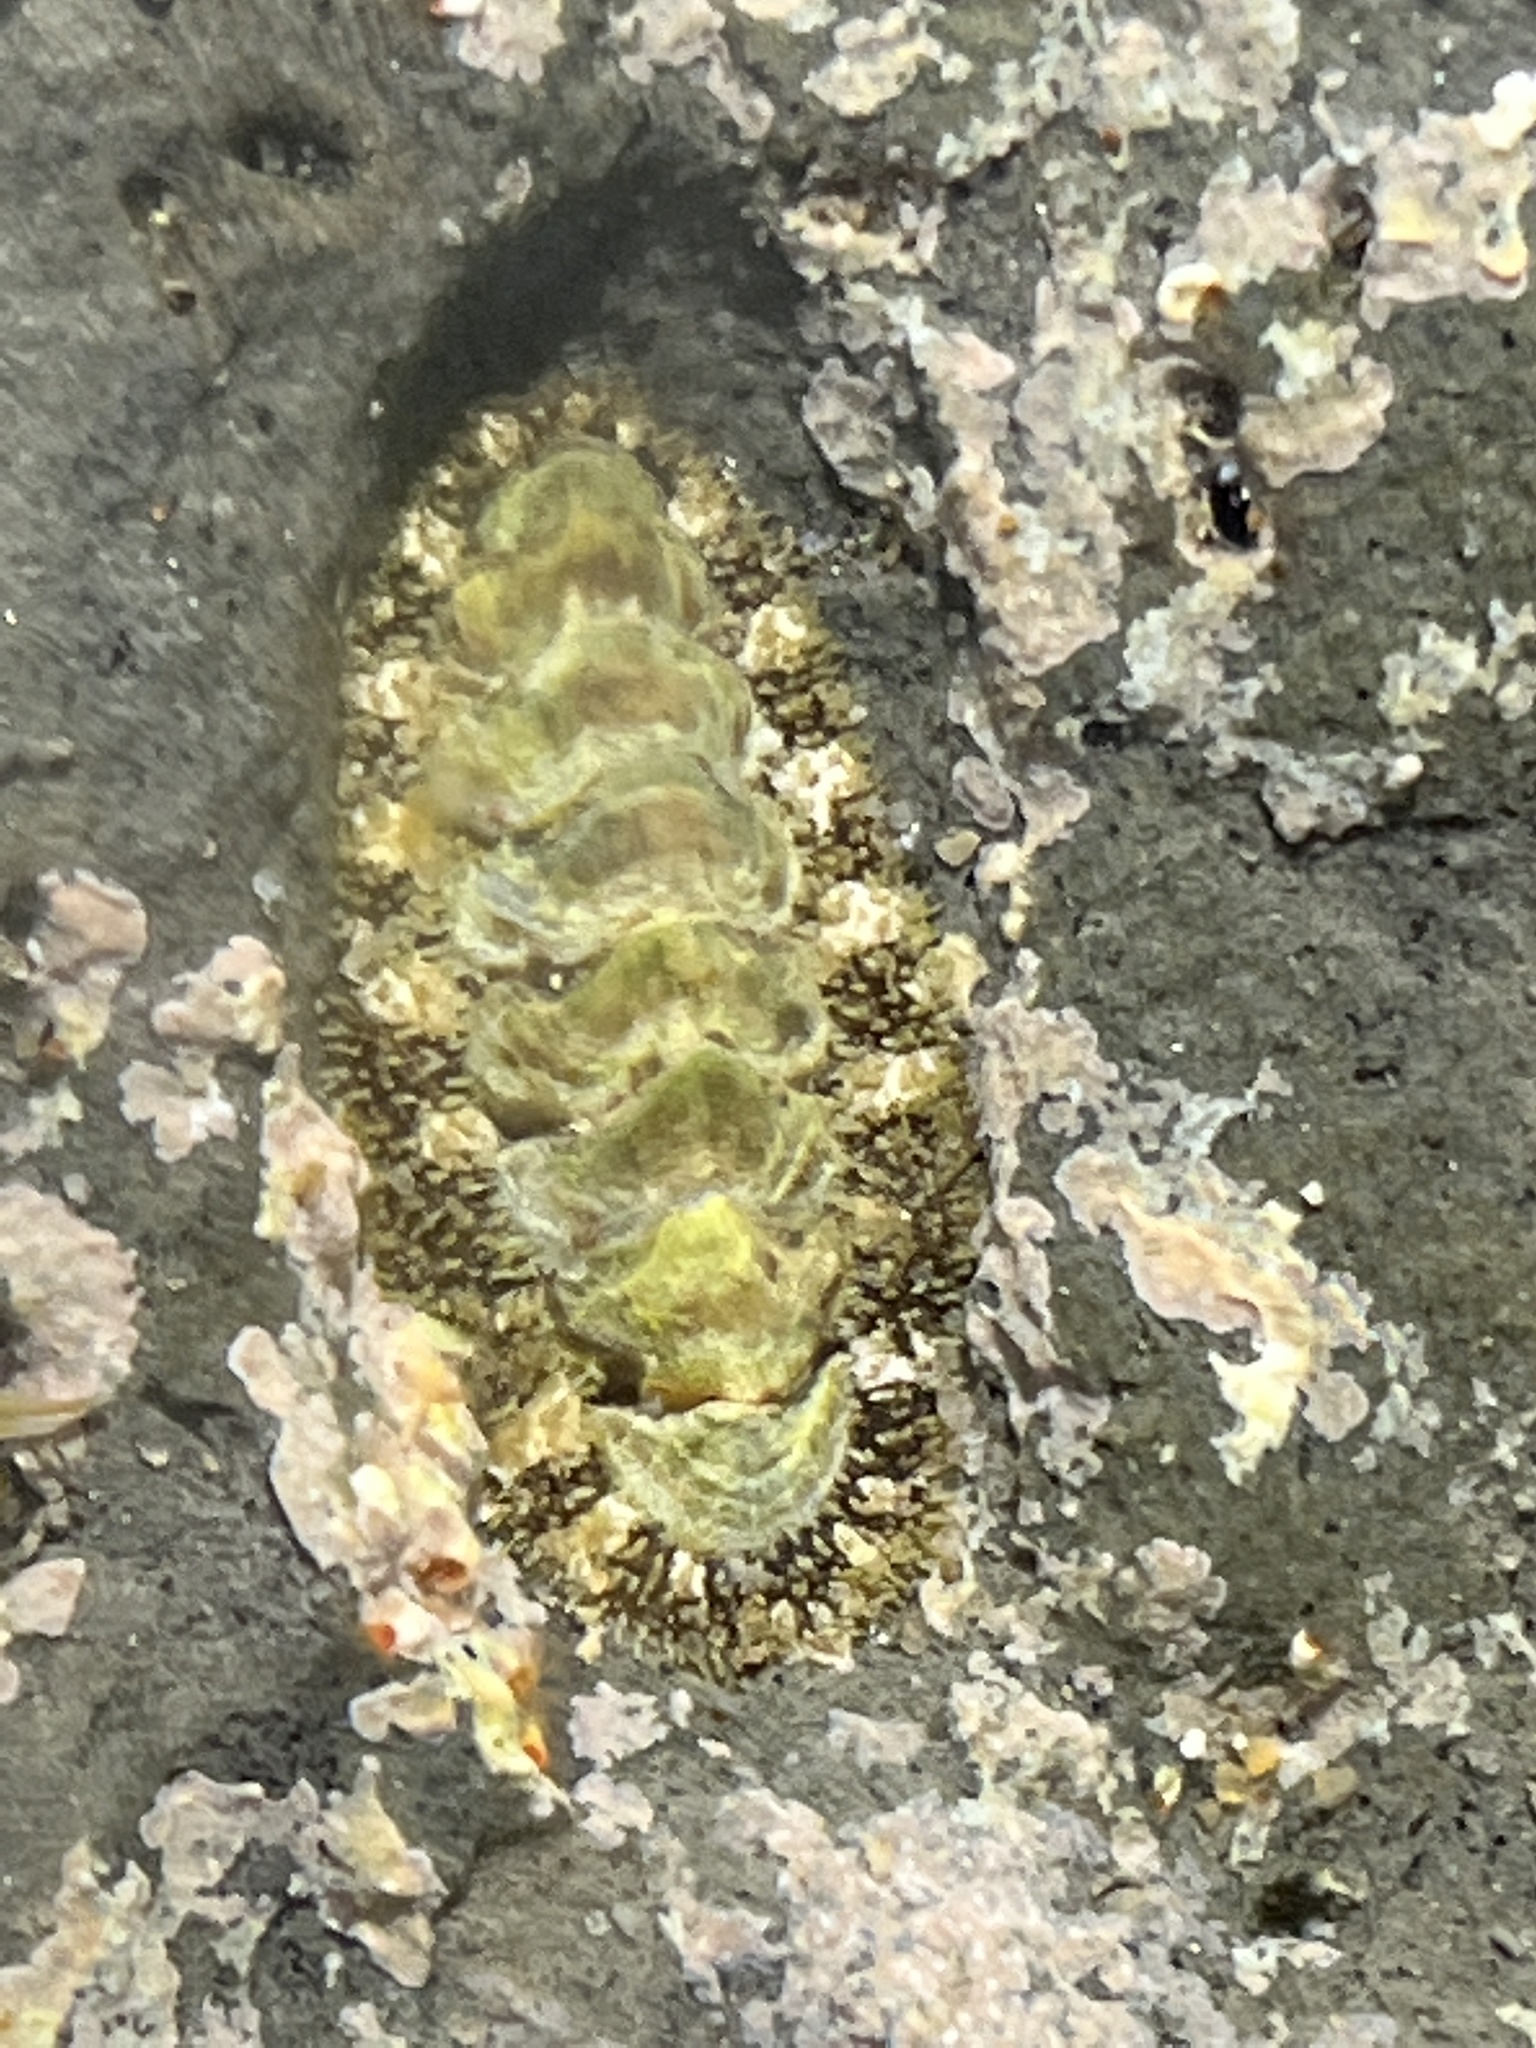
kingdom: Animalia
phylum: Mollusca
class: Polyplacophora
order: Chitonida
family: Tonicellidae
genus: Nuttallina
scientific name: Nuttallina californica
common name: California nuttall chiton
